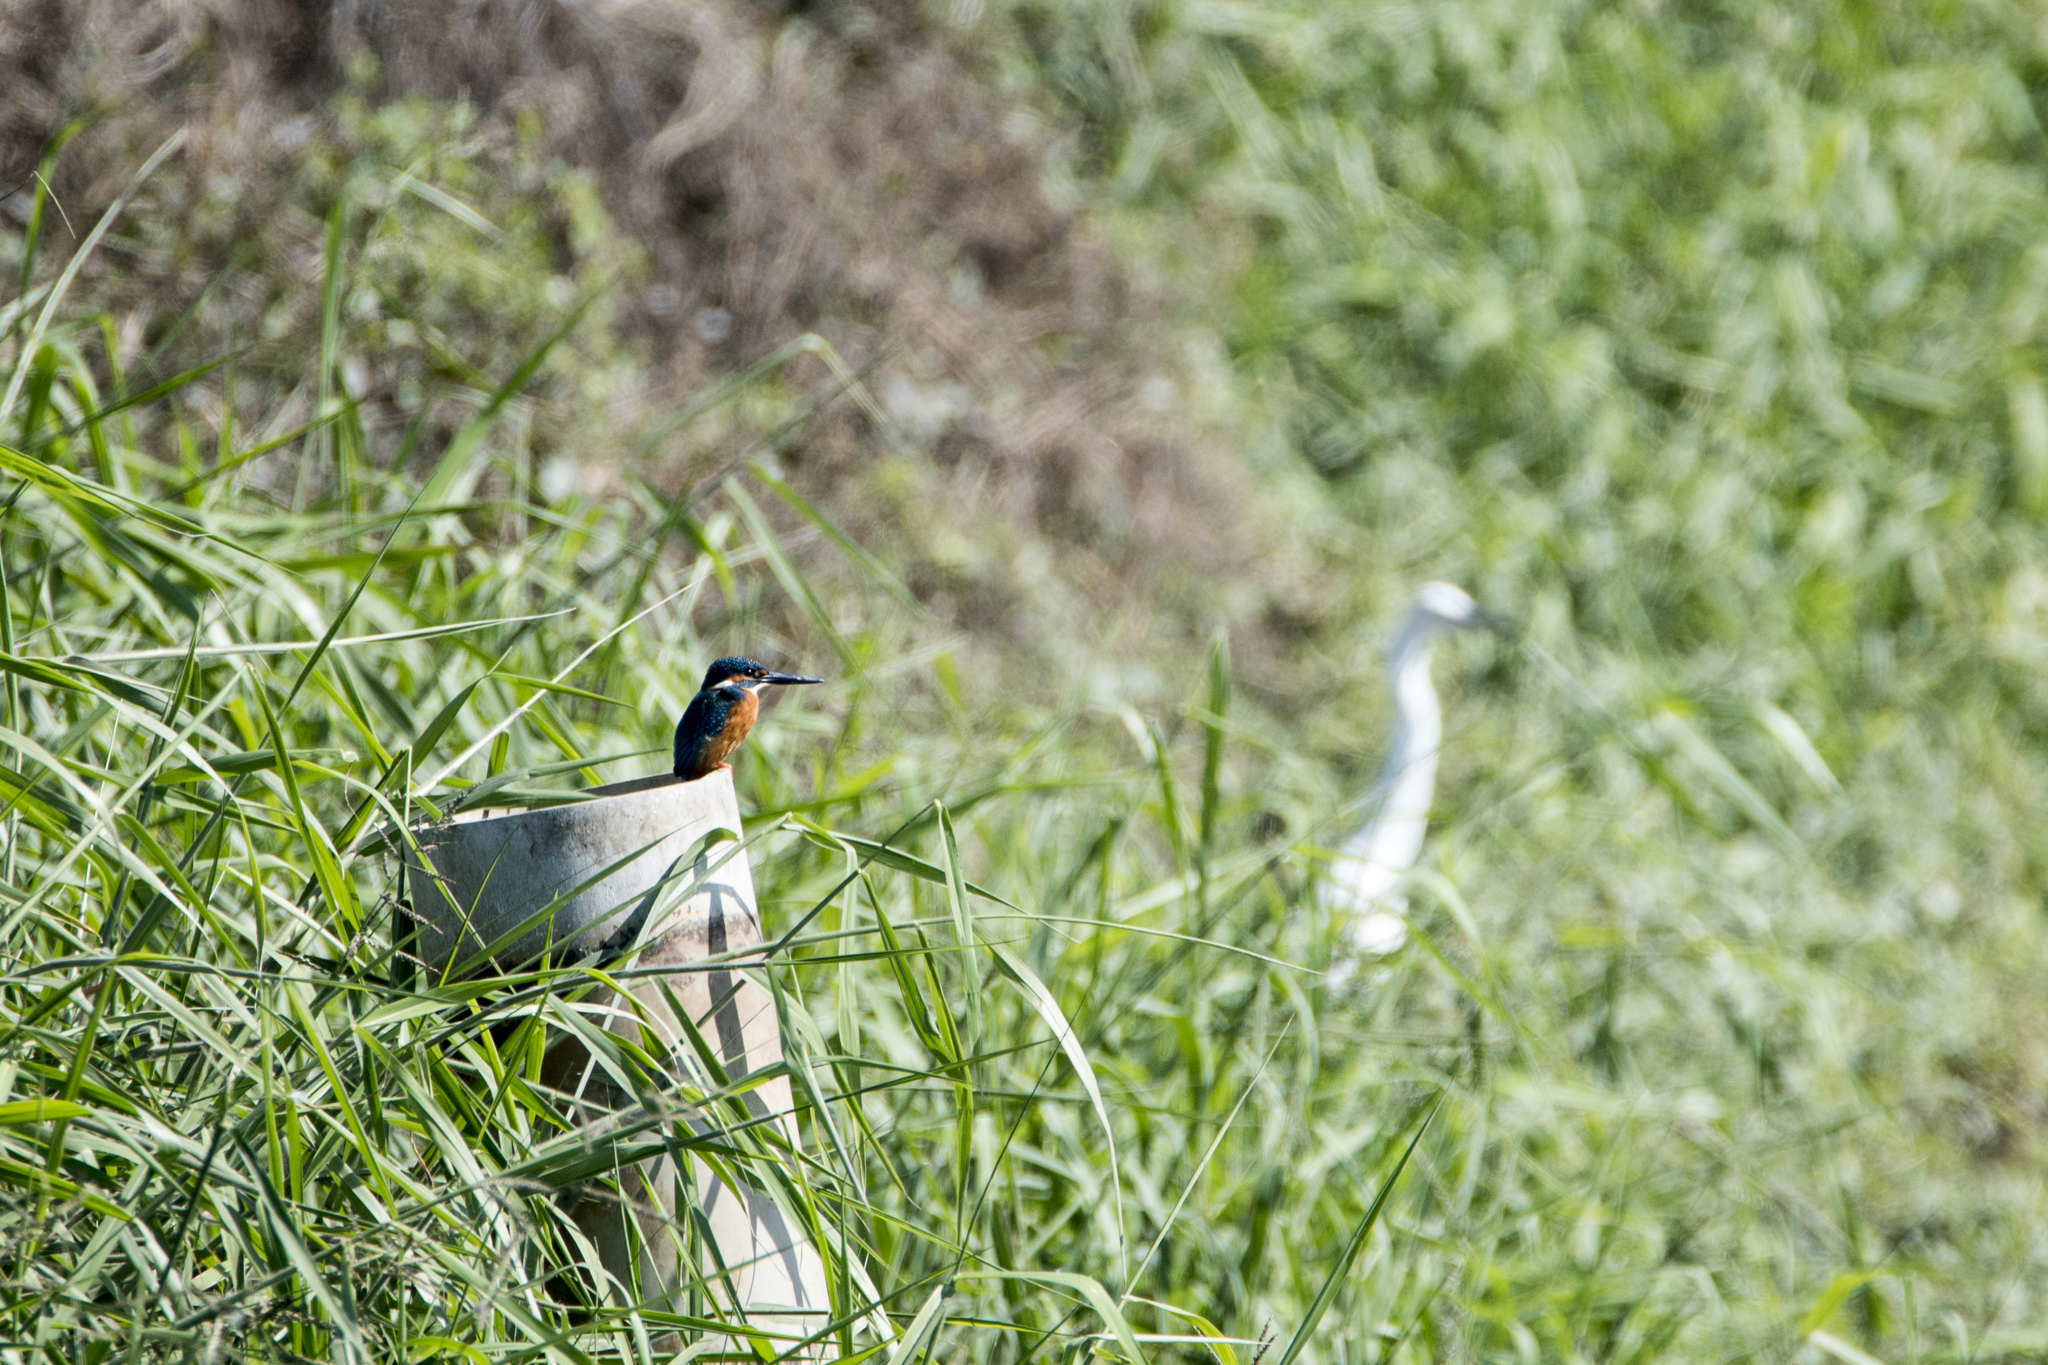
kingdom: Animalia
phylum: Chordata
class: Aves
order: Coraciiformes
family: Alcedinidae
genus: Alcedo
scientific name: Alcedo atthis
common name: Common kingfisher
